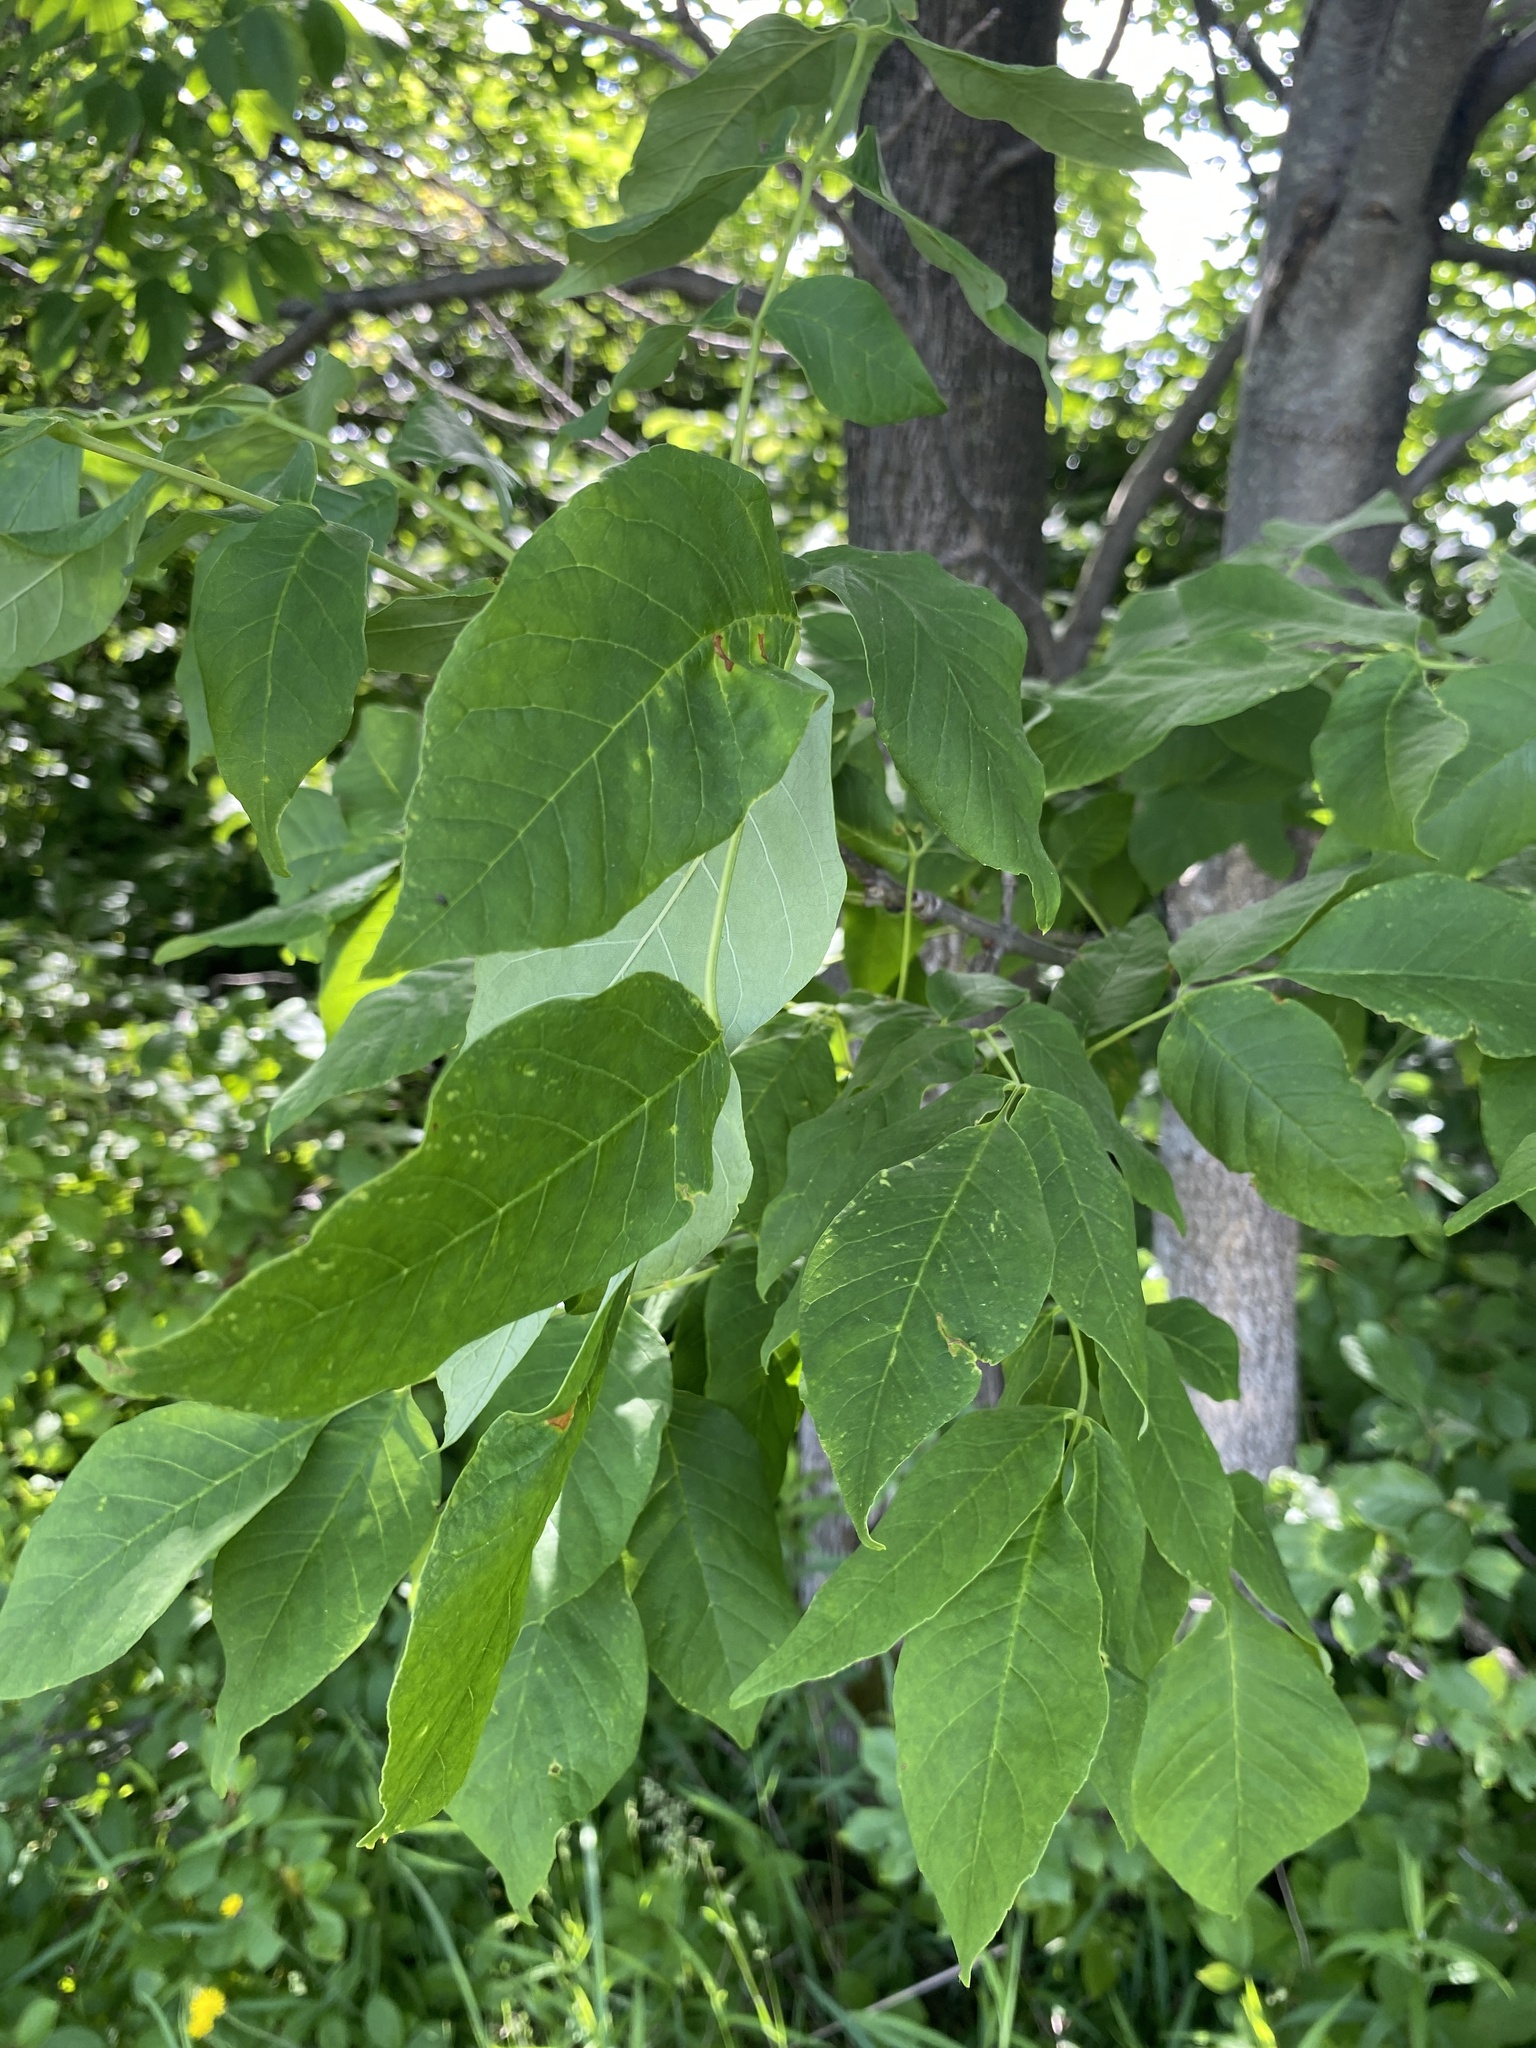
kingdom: Plantae
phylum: Tracheophyta
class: Magnoliopsida
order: Lamiales
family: Oleaceae
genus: Fraxinus
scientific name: Fraxinus americana
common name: White ash
